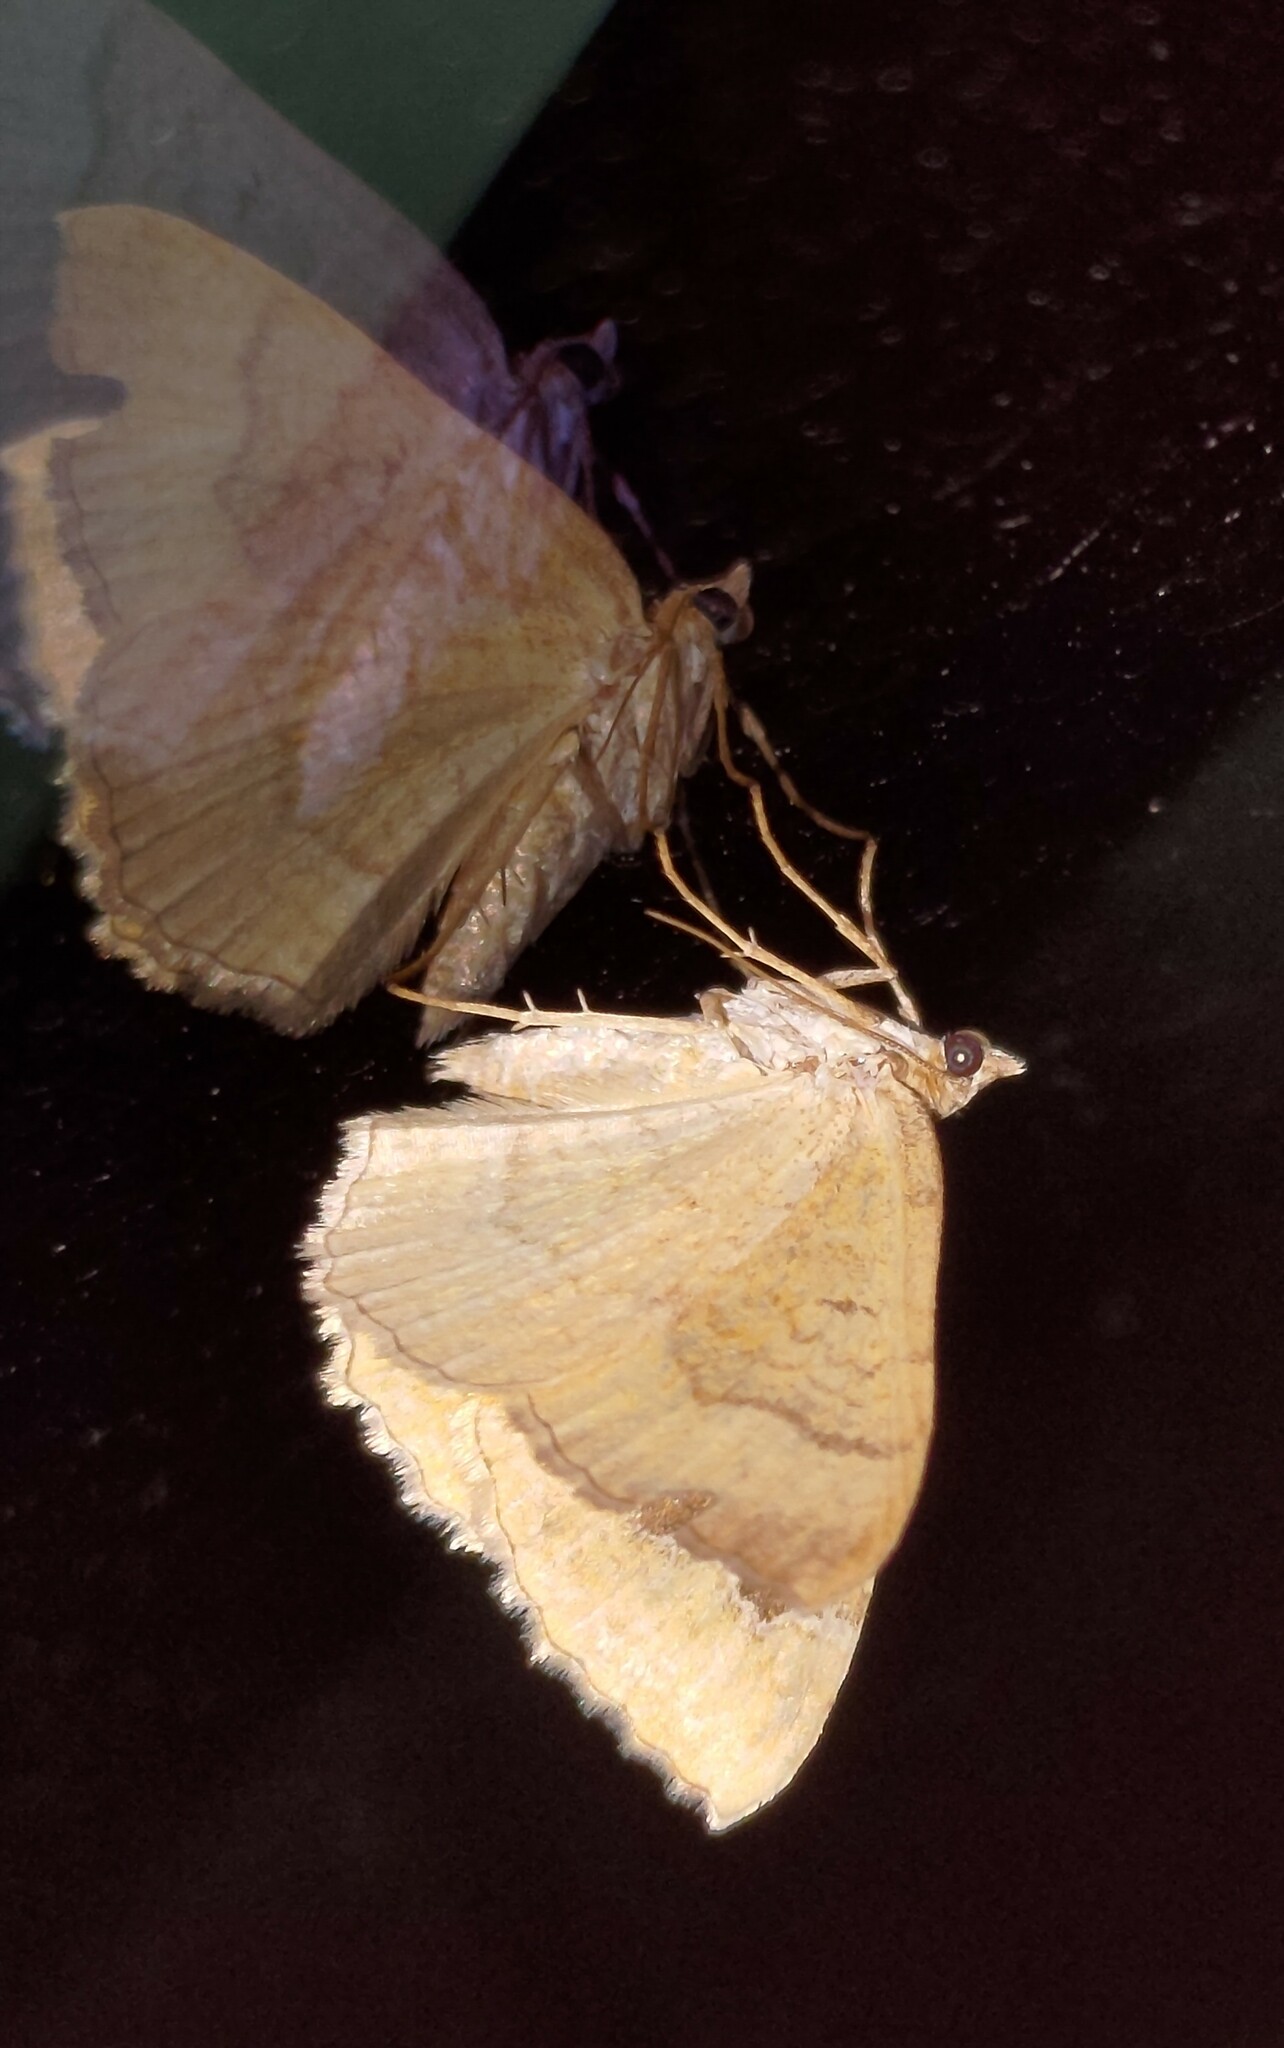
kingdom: Animalia
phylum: Arthropoda
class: Insecta
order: Lepidoptera
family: Geometridae
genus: Camptogramma
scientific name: Camptogramma bilineata
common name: Yellow shell
